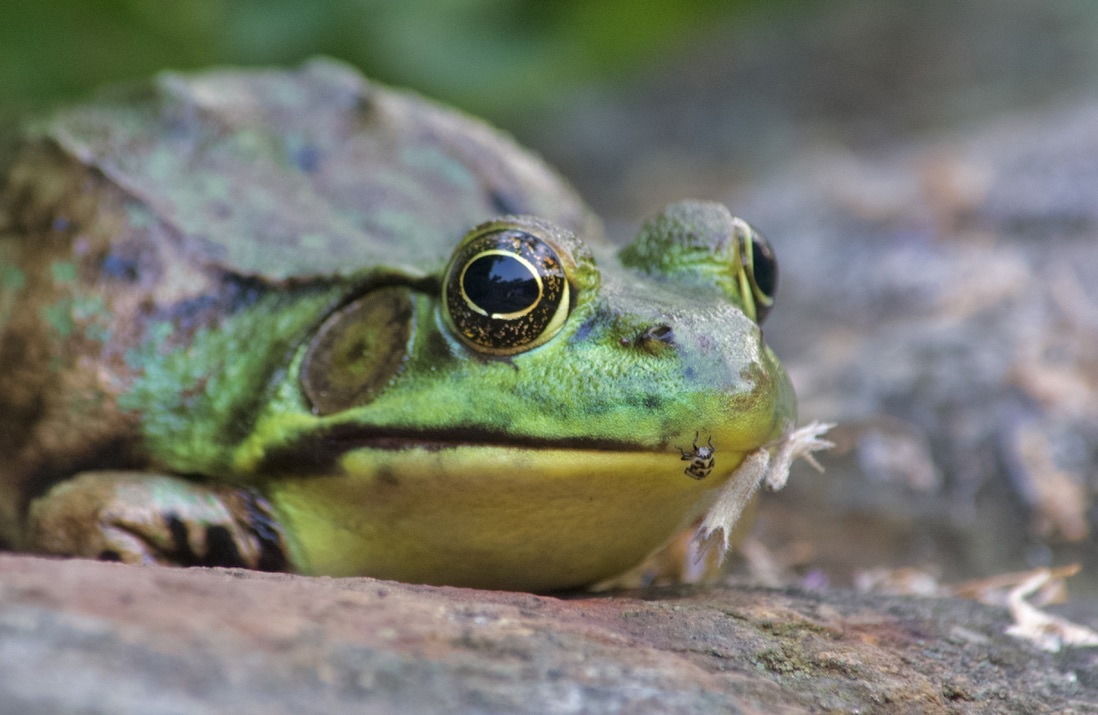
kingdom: Animalia
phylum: Chordata
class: Amphibia
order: Anura
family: Ranidae
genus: Lithobates
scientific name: Lithobates clamitans
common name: Green frog
